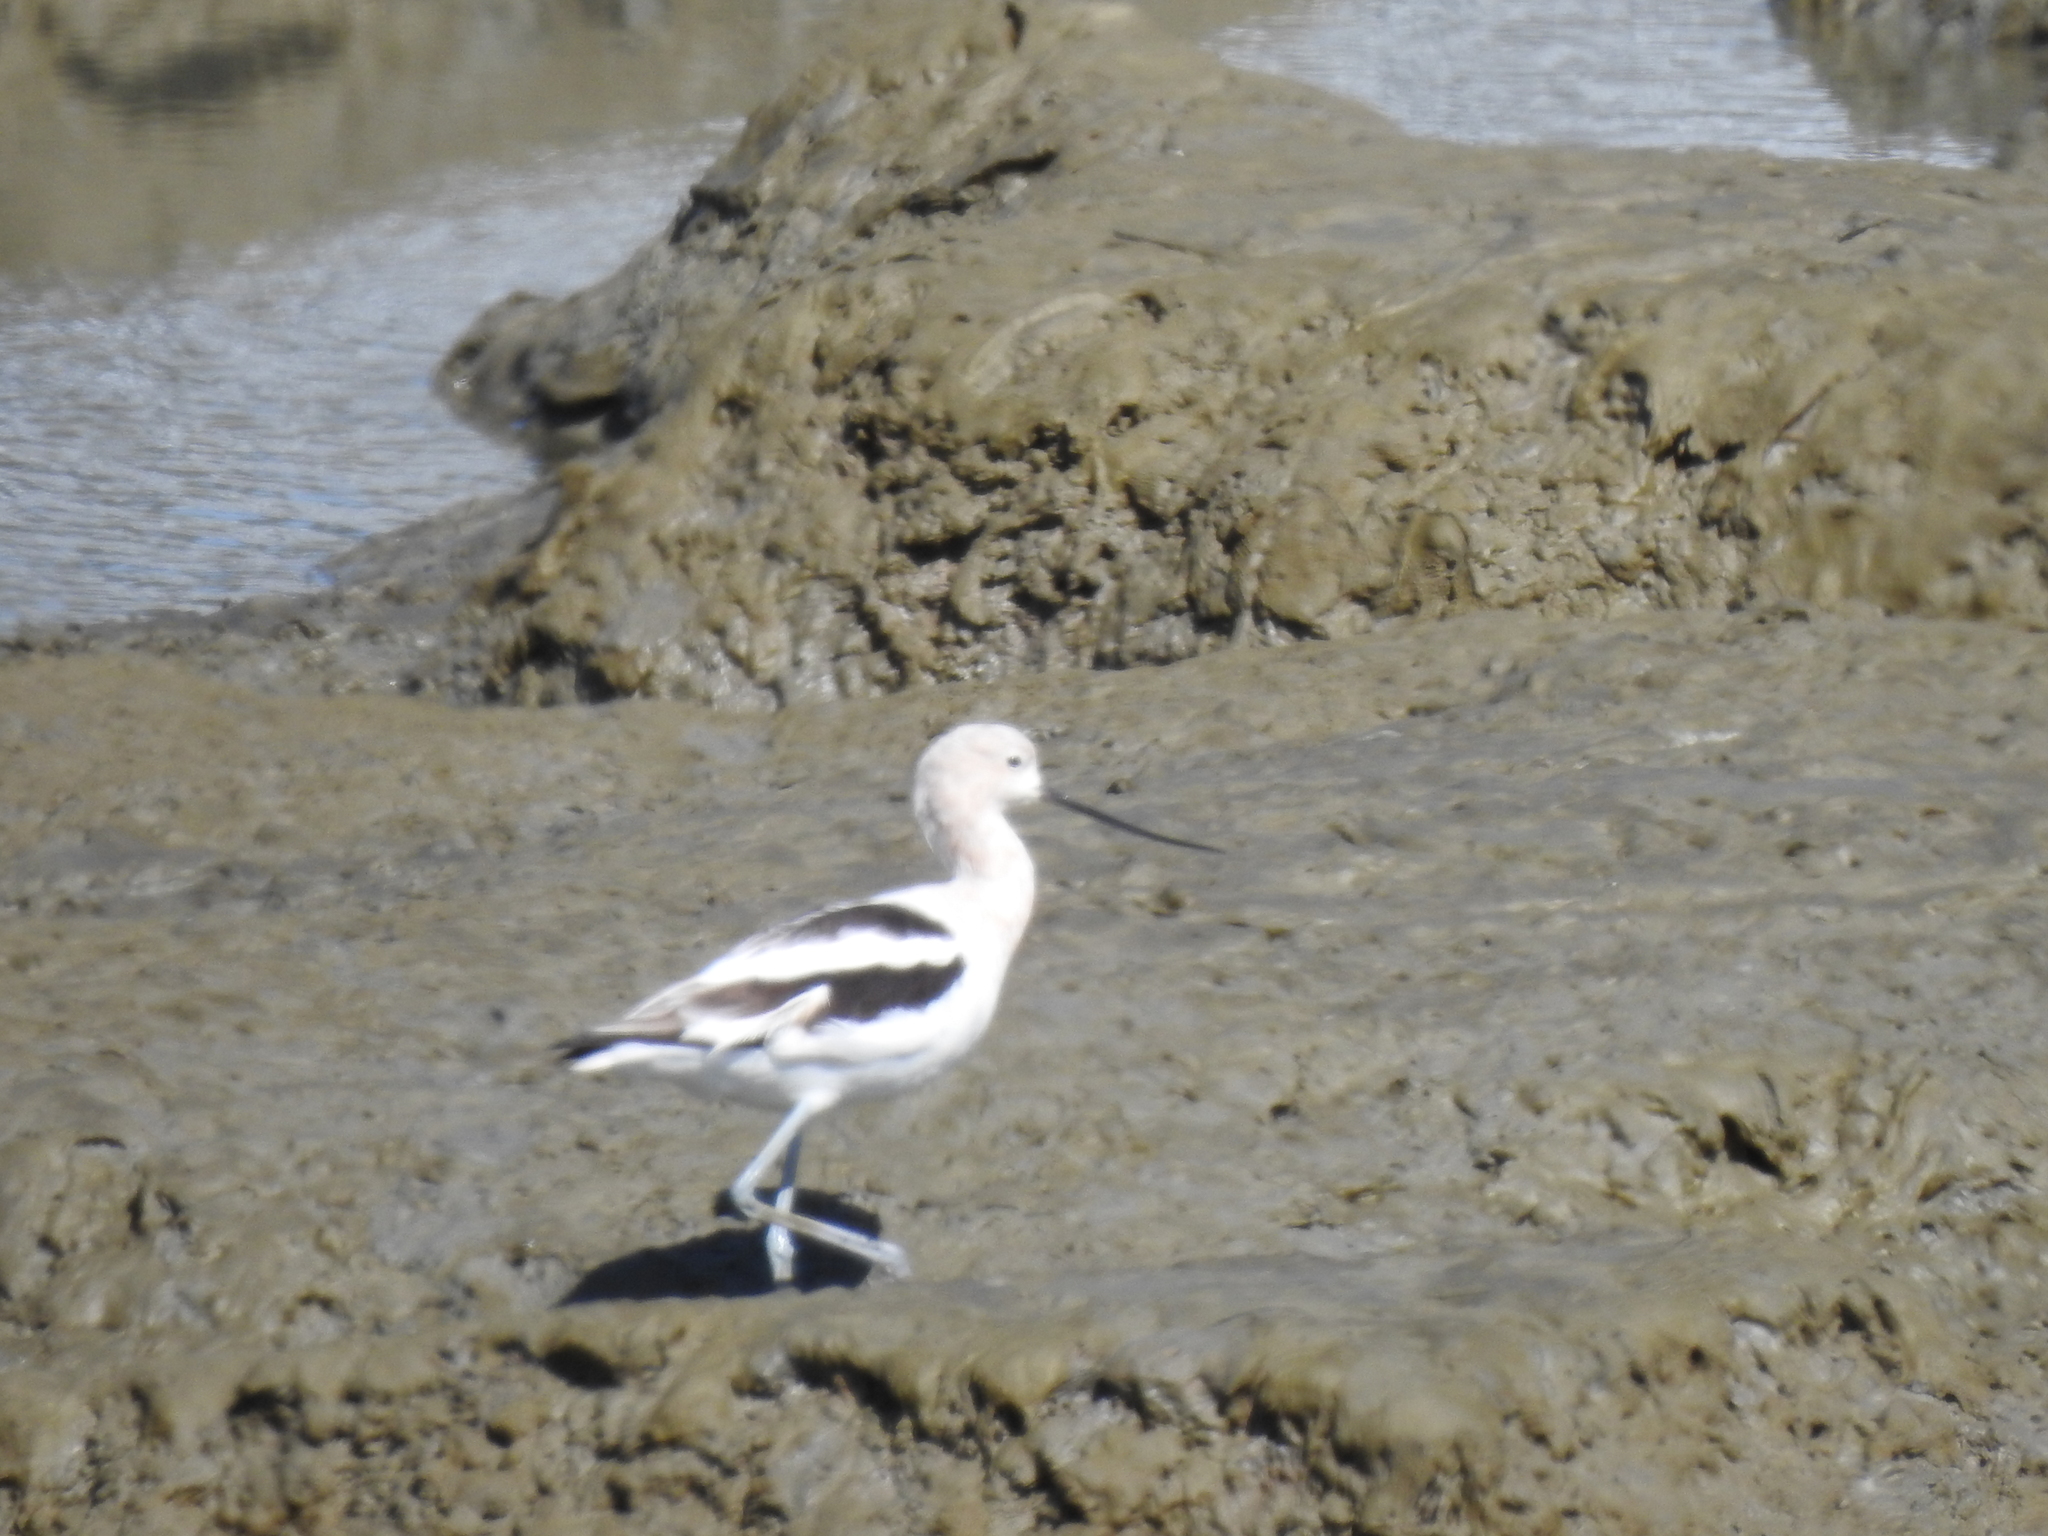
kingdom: Animalia
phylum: Chordata
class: Aves
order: Charadriiformes
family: Recurvirostridae
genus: Recurvirostra
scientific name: Recurvirostra americana
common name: American avocet
